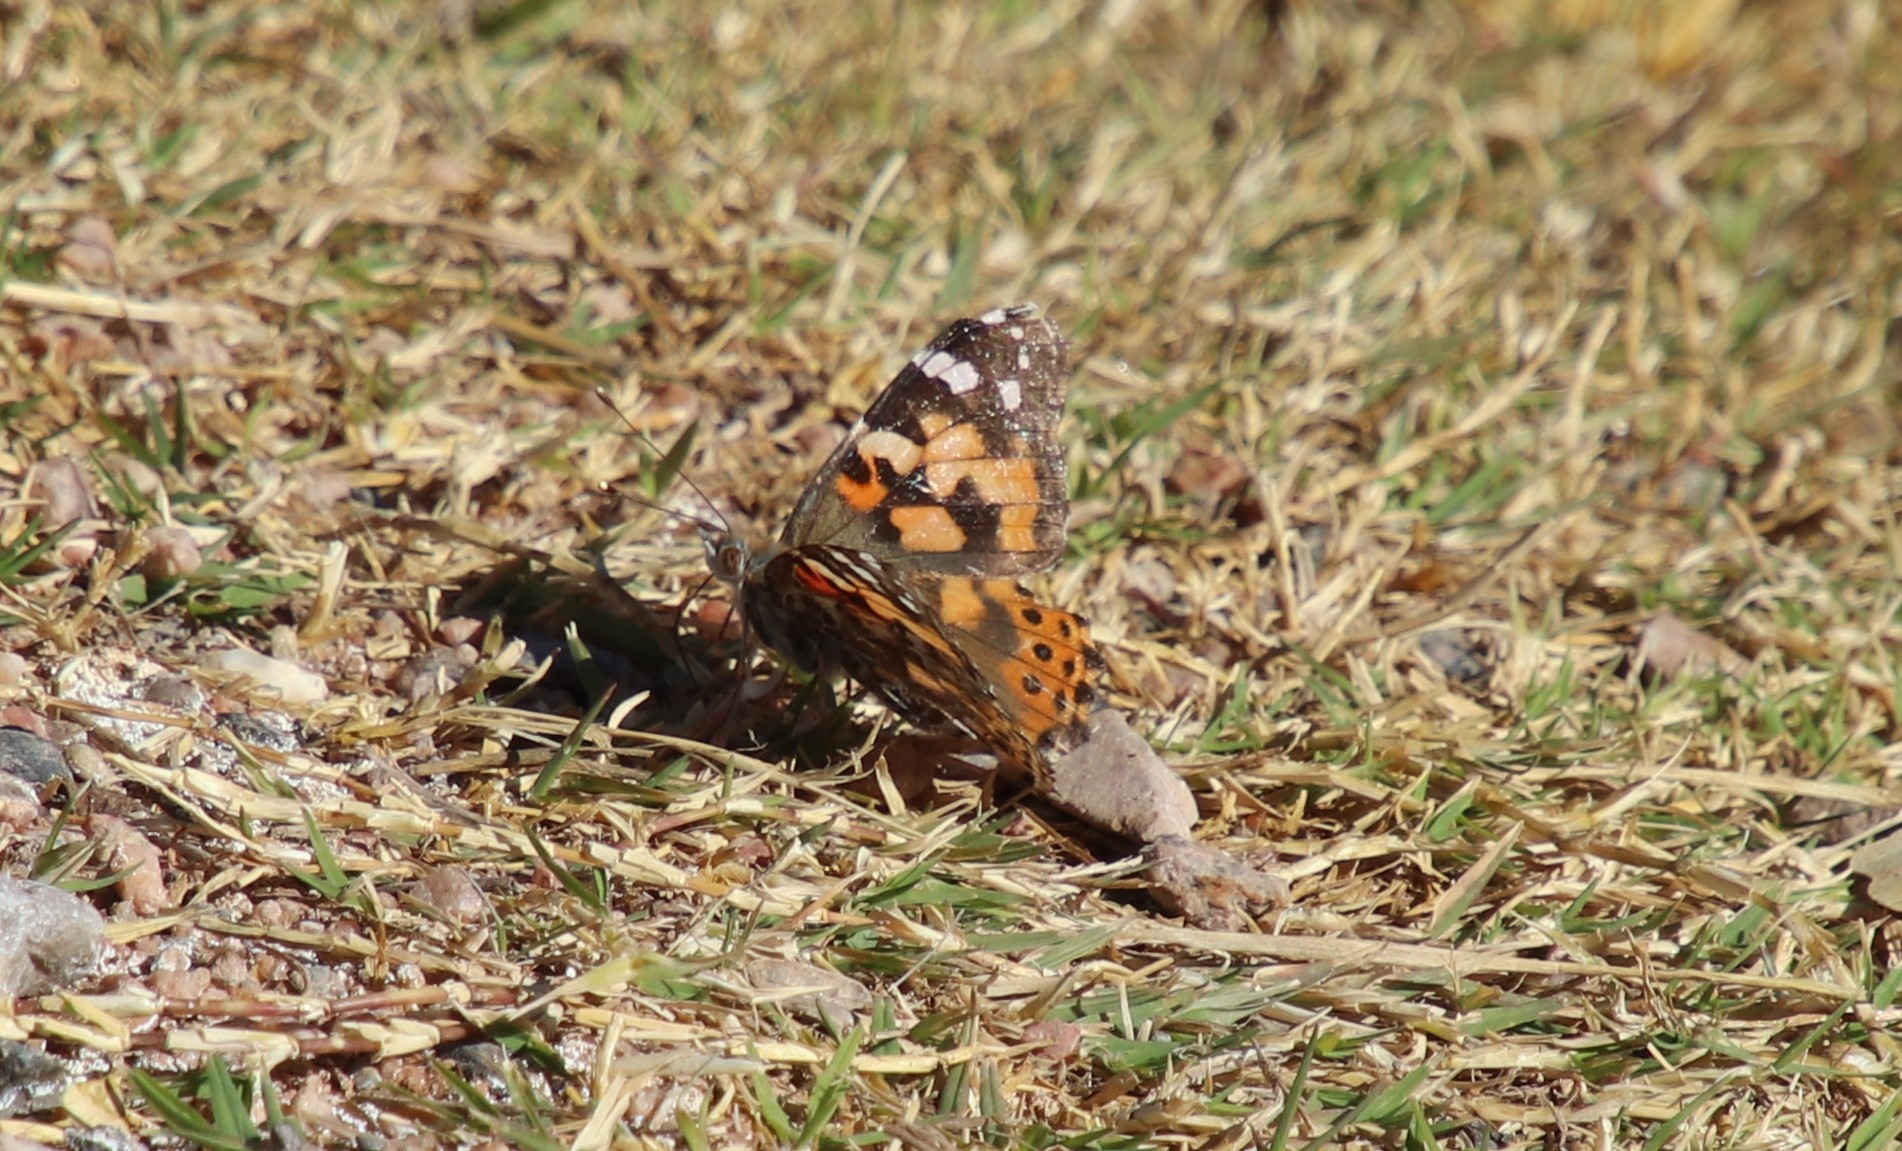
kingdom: Animalia
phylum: Arthropoda
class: Insecta
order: Lepidoptera
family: Nymphalidae
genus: Vanessa
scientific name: Vanessa cardui
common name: Painted lady
